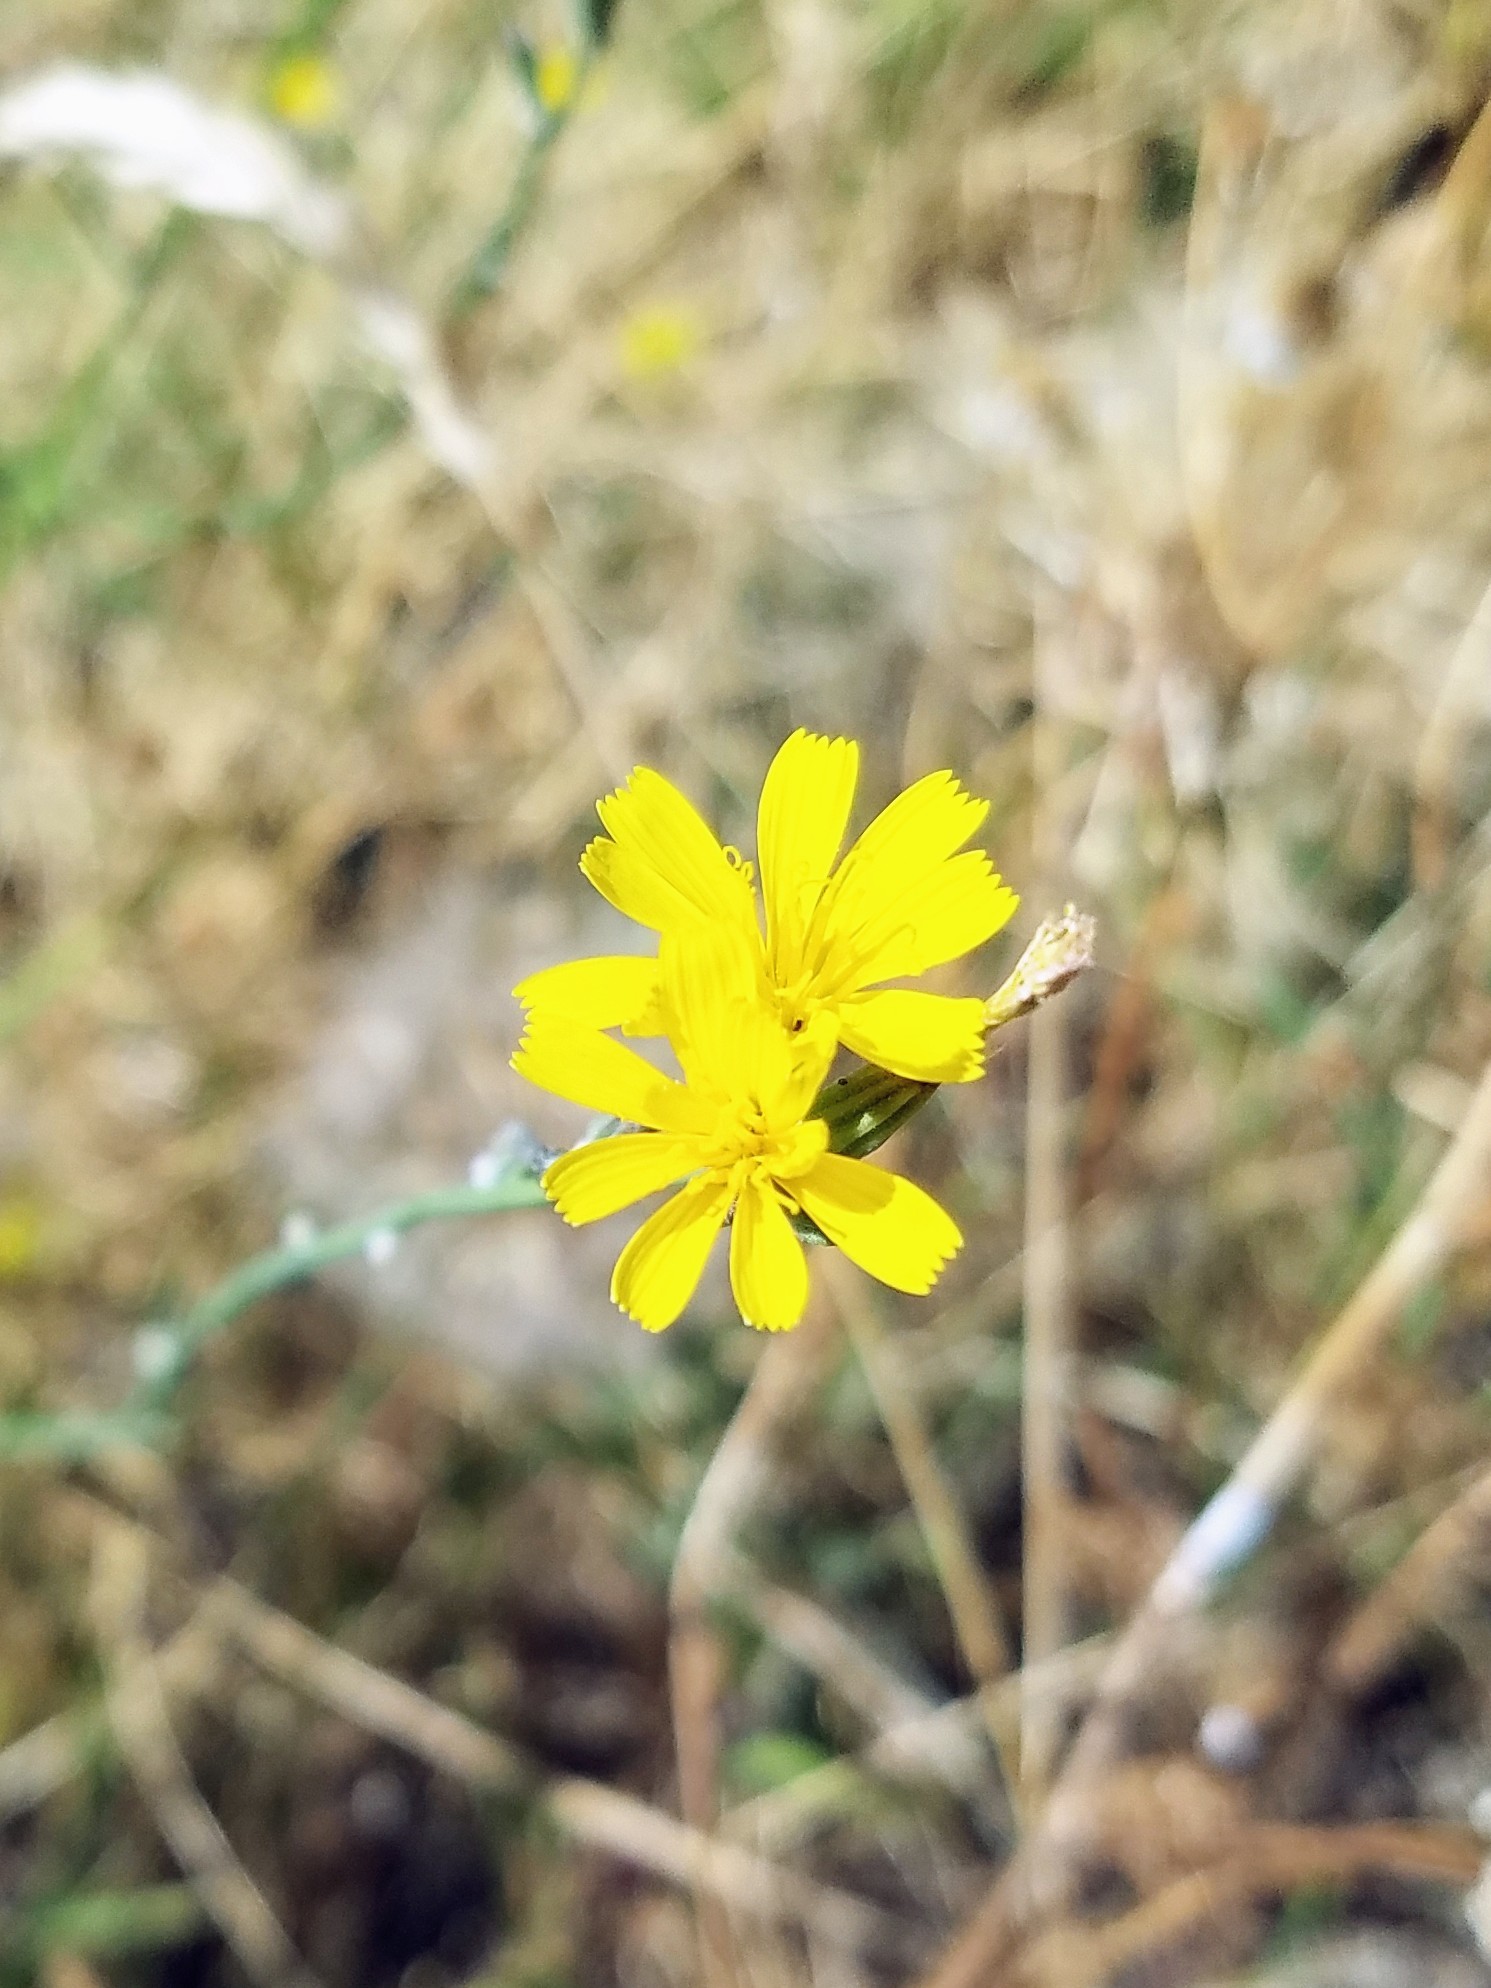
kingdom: Plantae
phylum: Tracheophyta
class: Magnoliopsida
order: Asterales
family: Asteraceae
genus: Chondrilla
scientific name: Chondrilla juncea
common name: Skeleton weed
